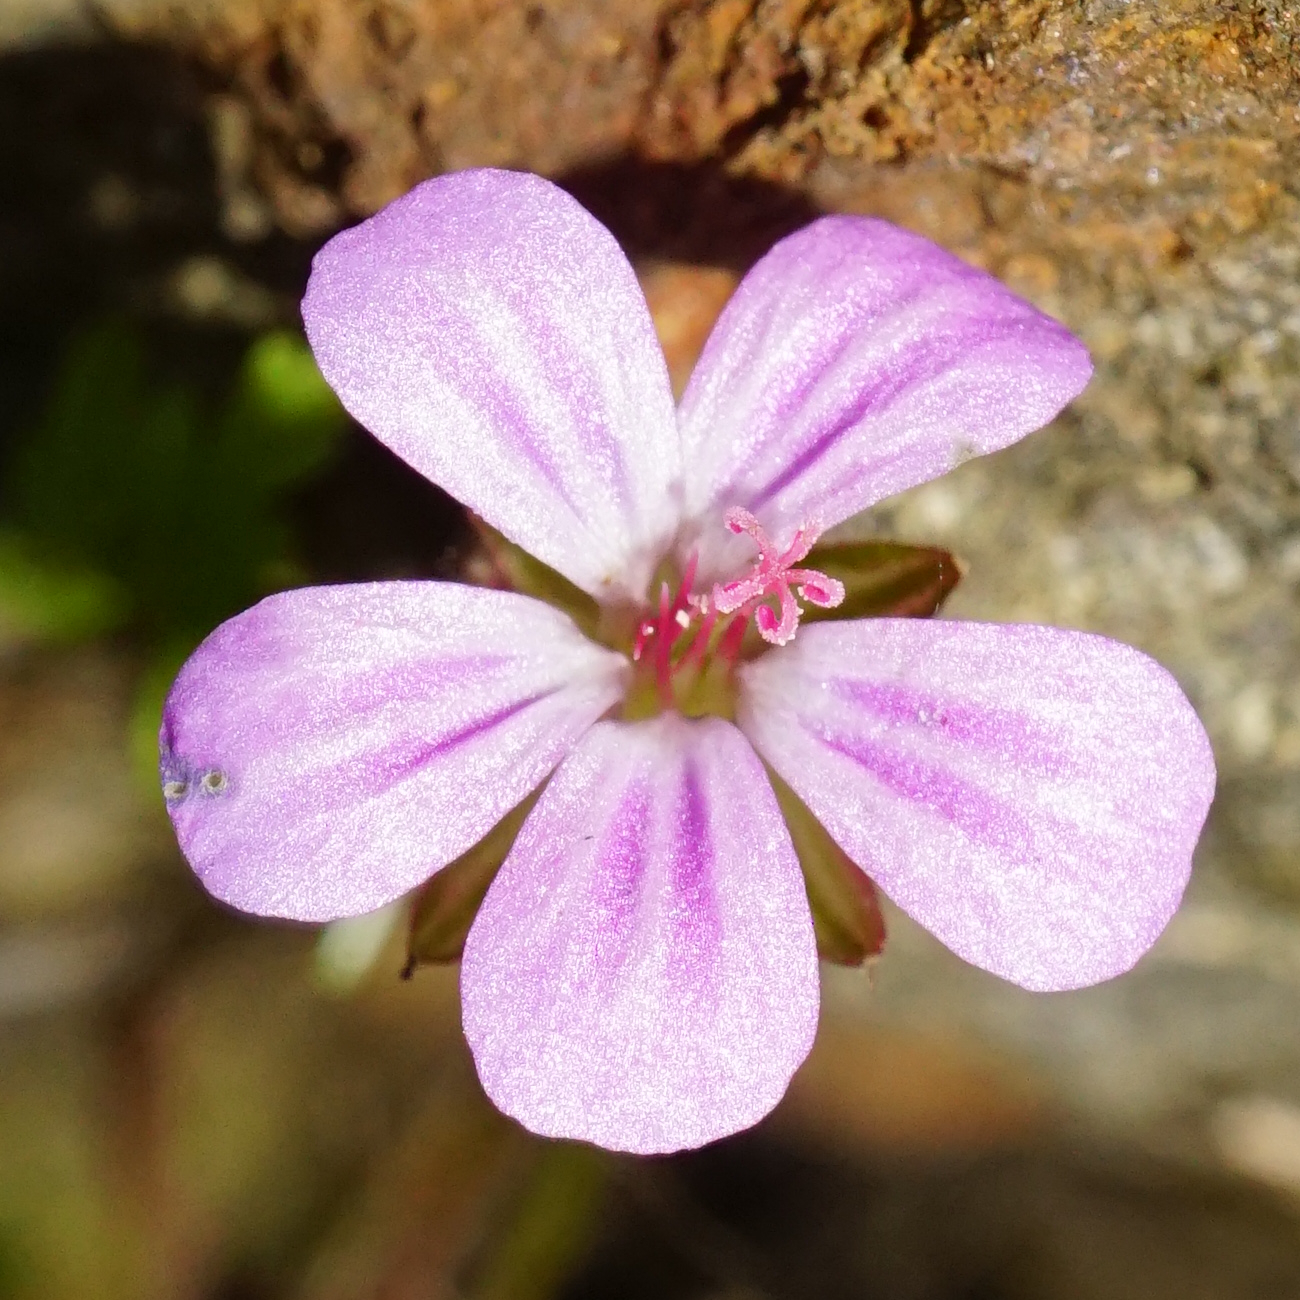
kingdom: Plantae
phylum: Tracheophyta
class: Magnoliopsida
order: Geraniales
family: Geraniaceae
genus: Geranium
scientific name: Geranium robertianum
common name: Herb-robert
